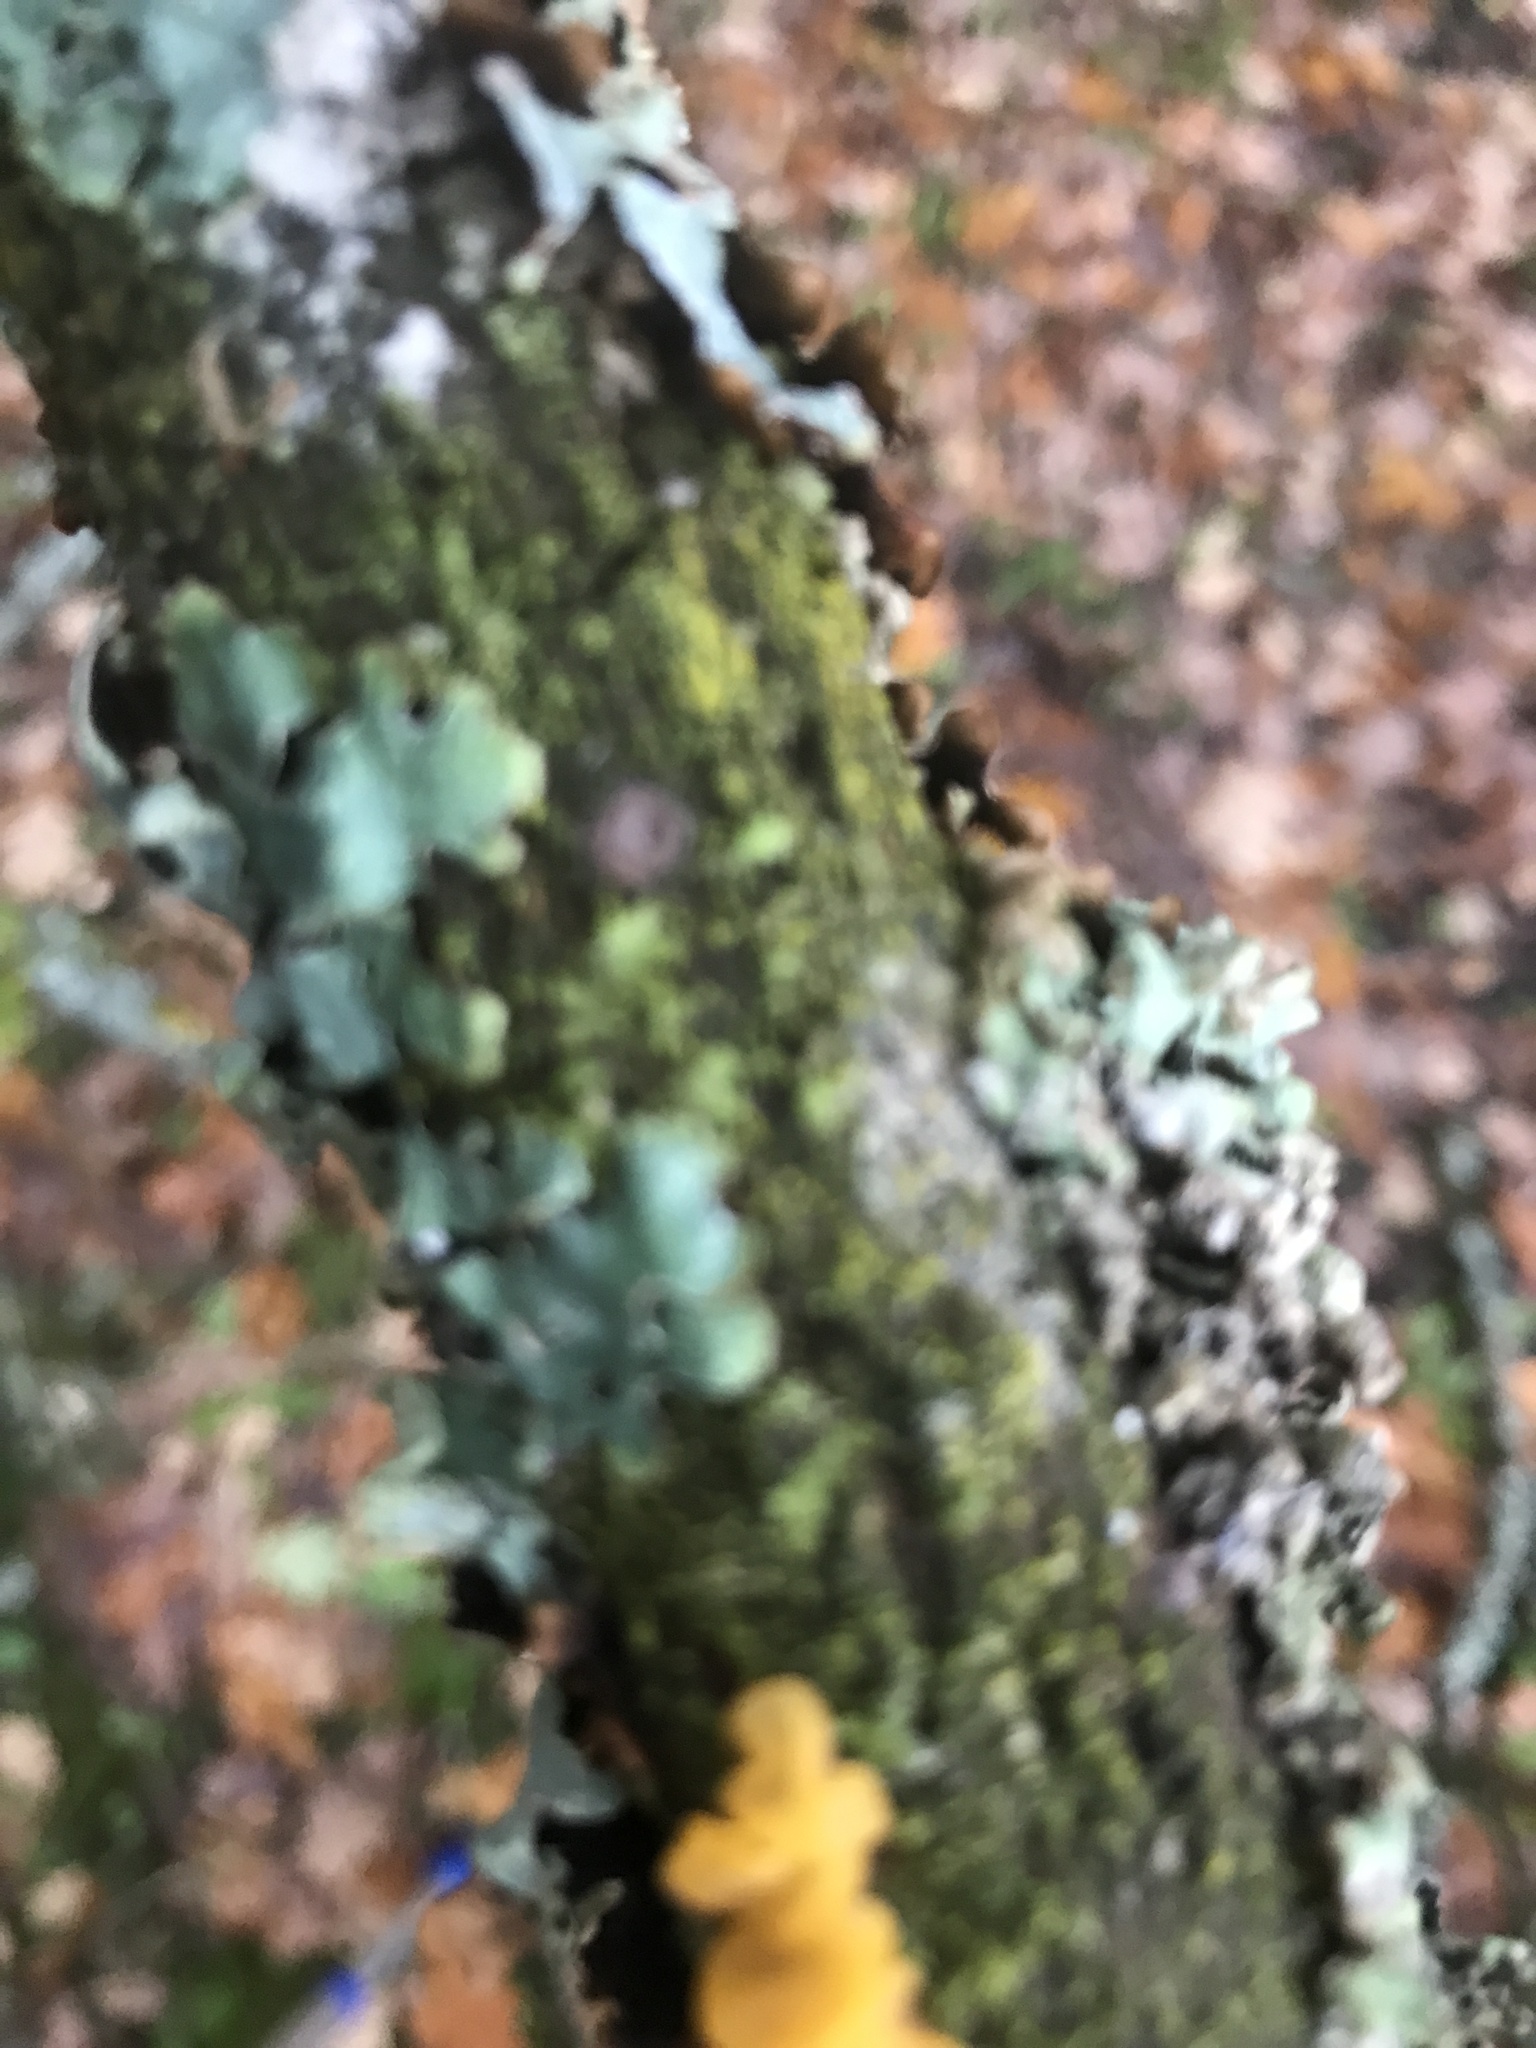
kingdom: Fungi
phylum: Basidiomycota
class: Tremellomycetes
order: Tremellales
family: Tremellaceae
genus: Tremella
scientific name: Tremella mesenterica
